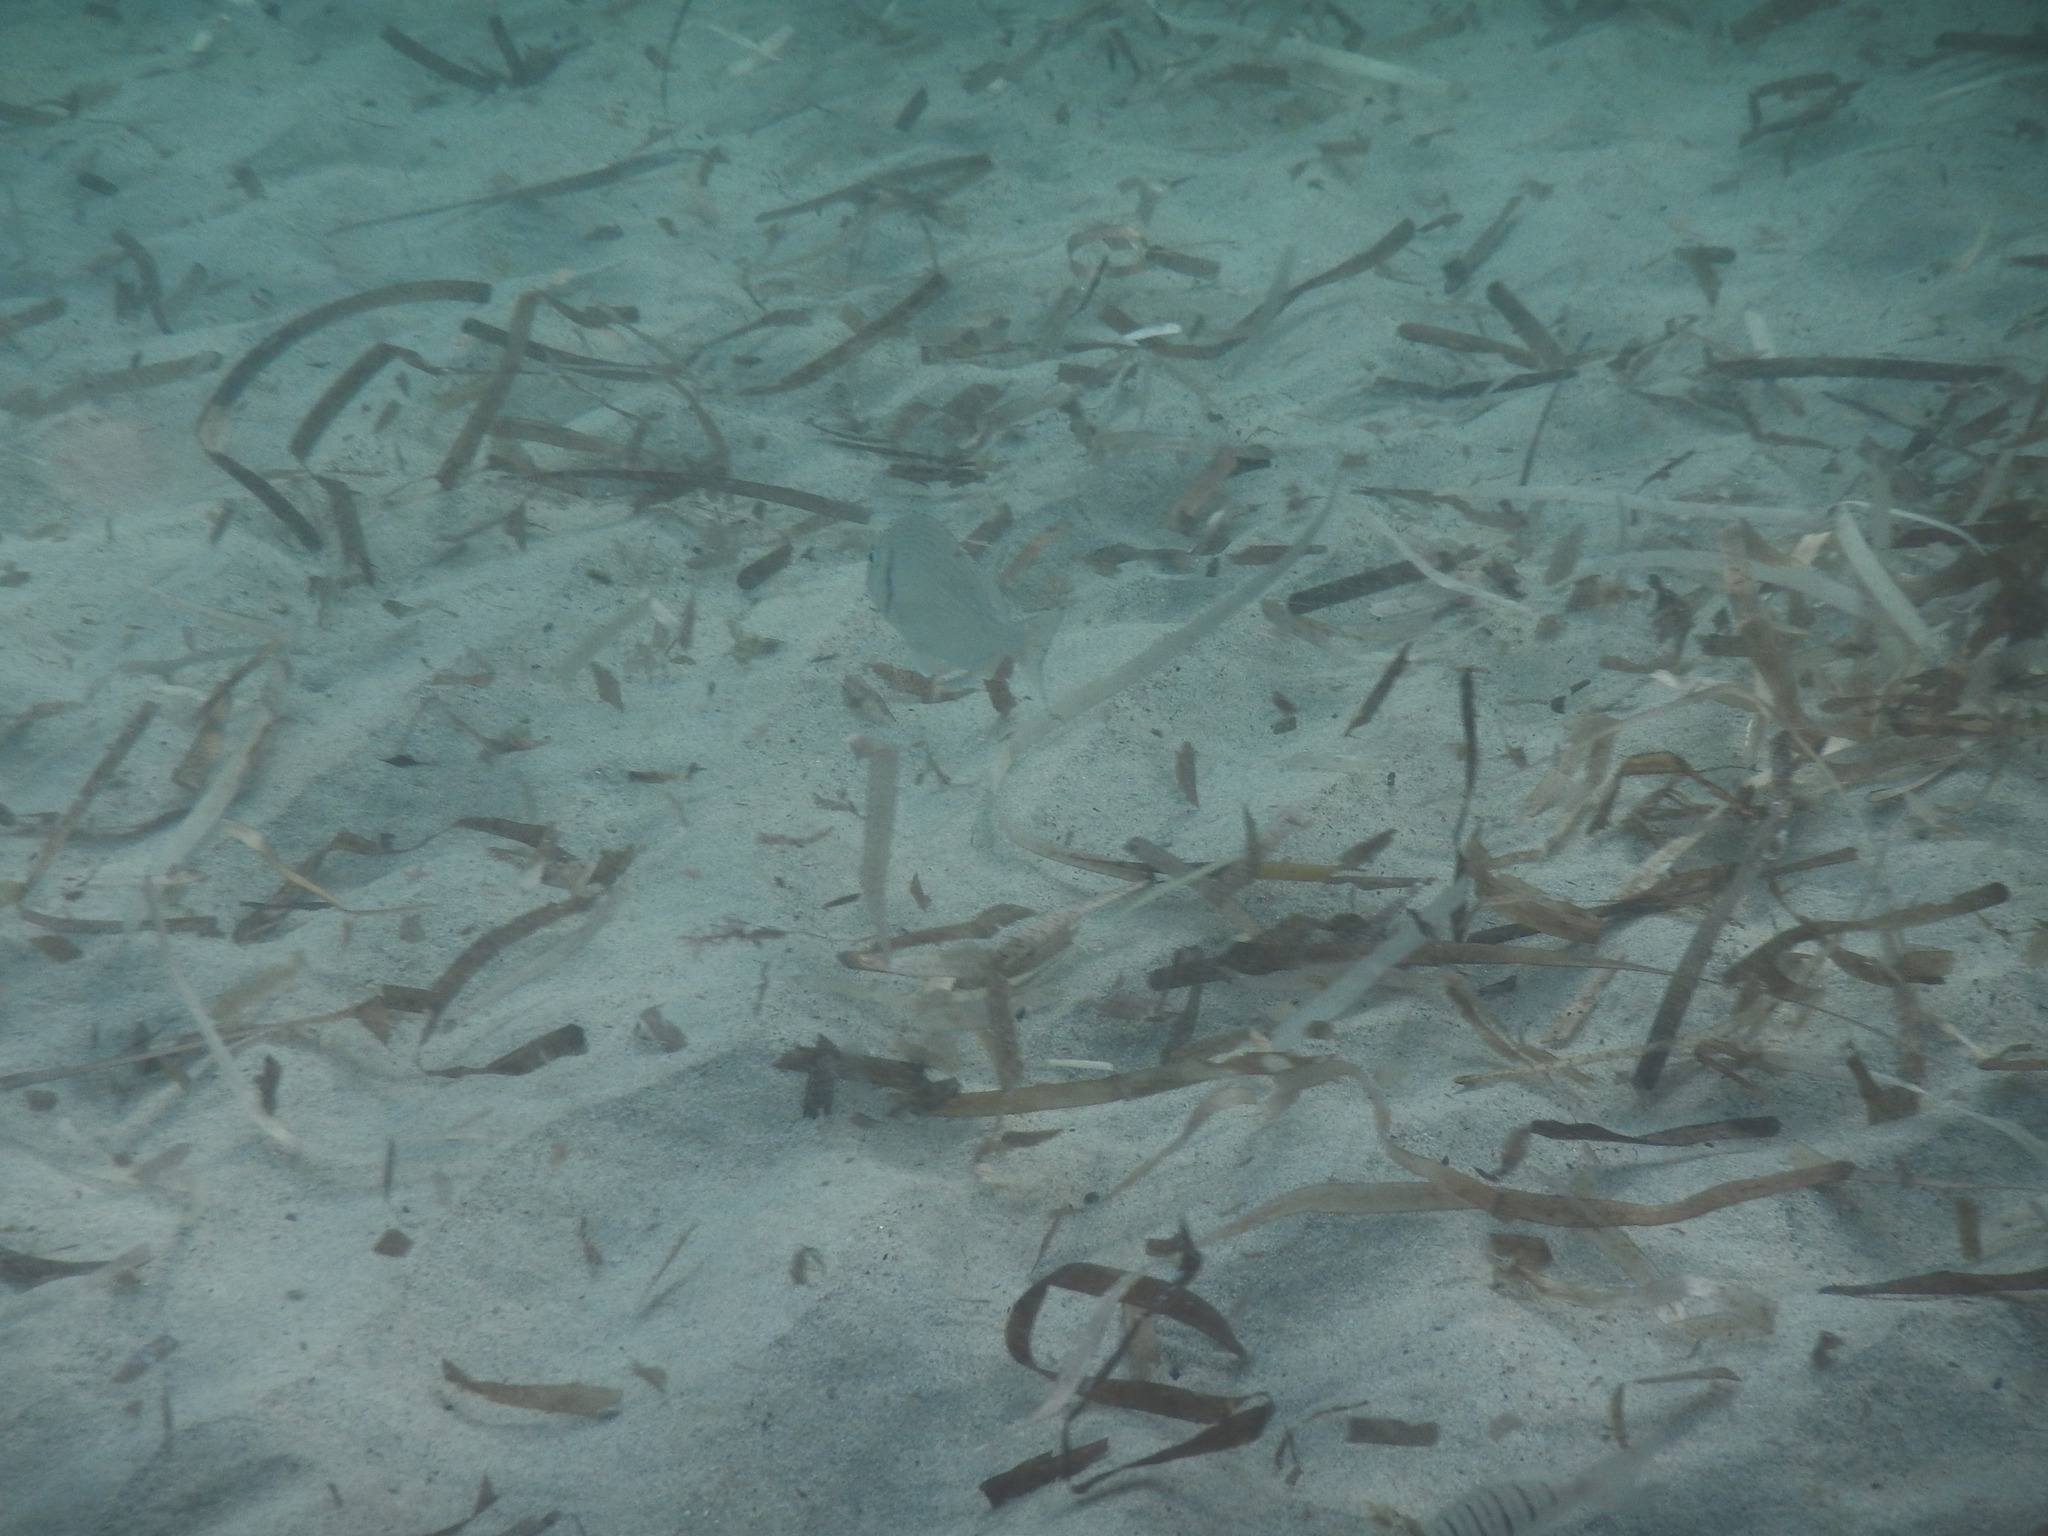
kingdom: Animalia
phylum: Chordata
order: Perciformes
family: Sparidae
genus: Sparus
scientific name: Sparus aurata
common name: Gilthead
